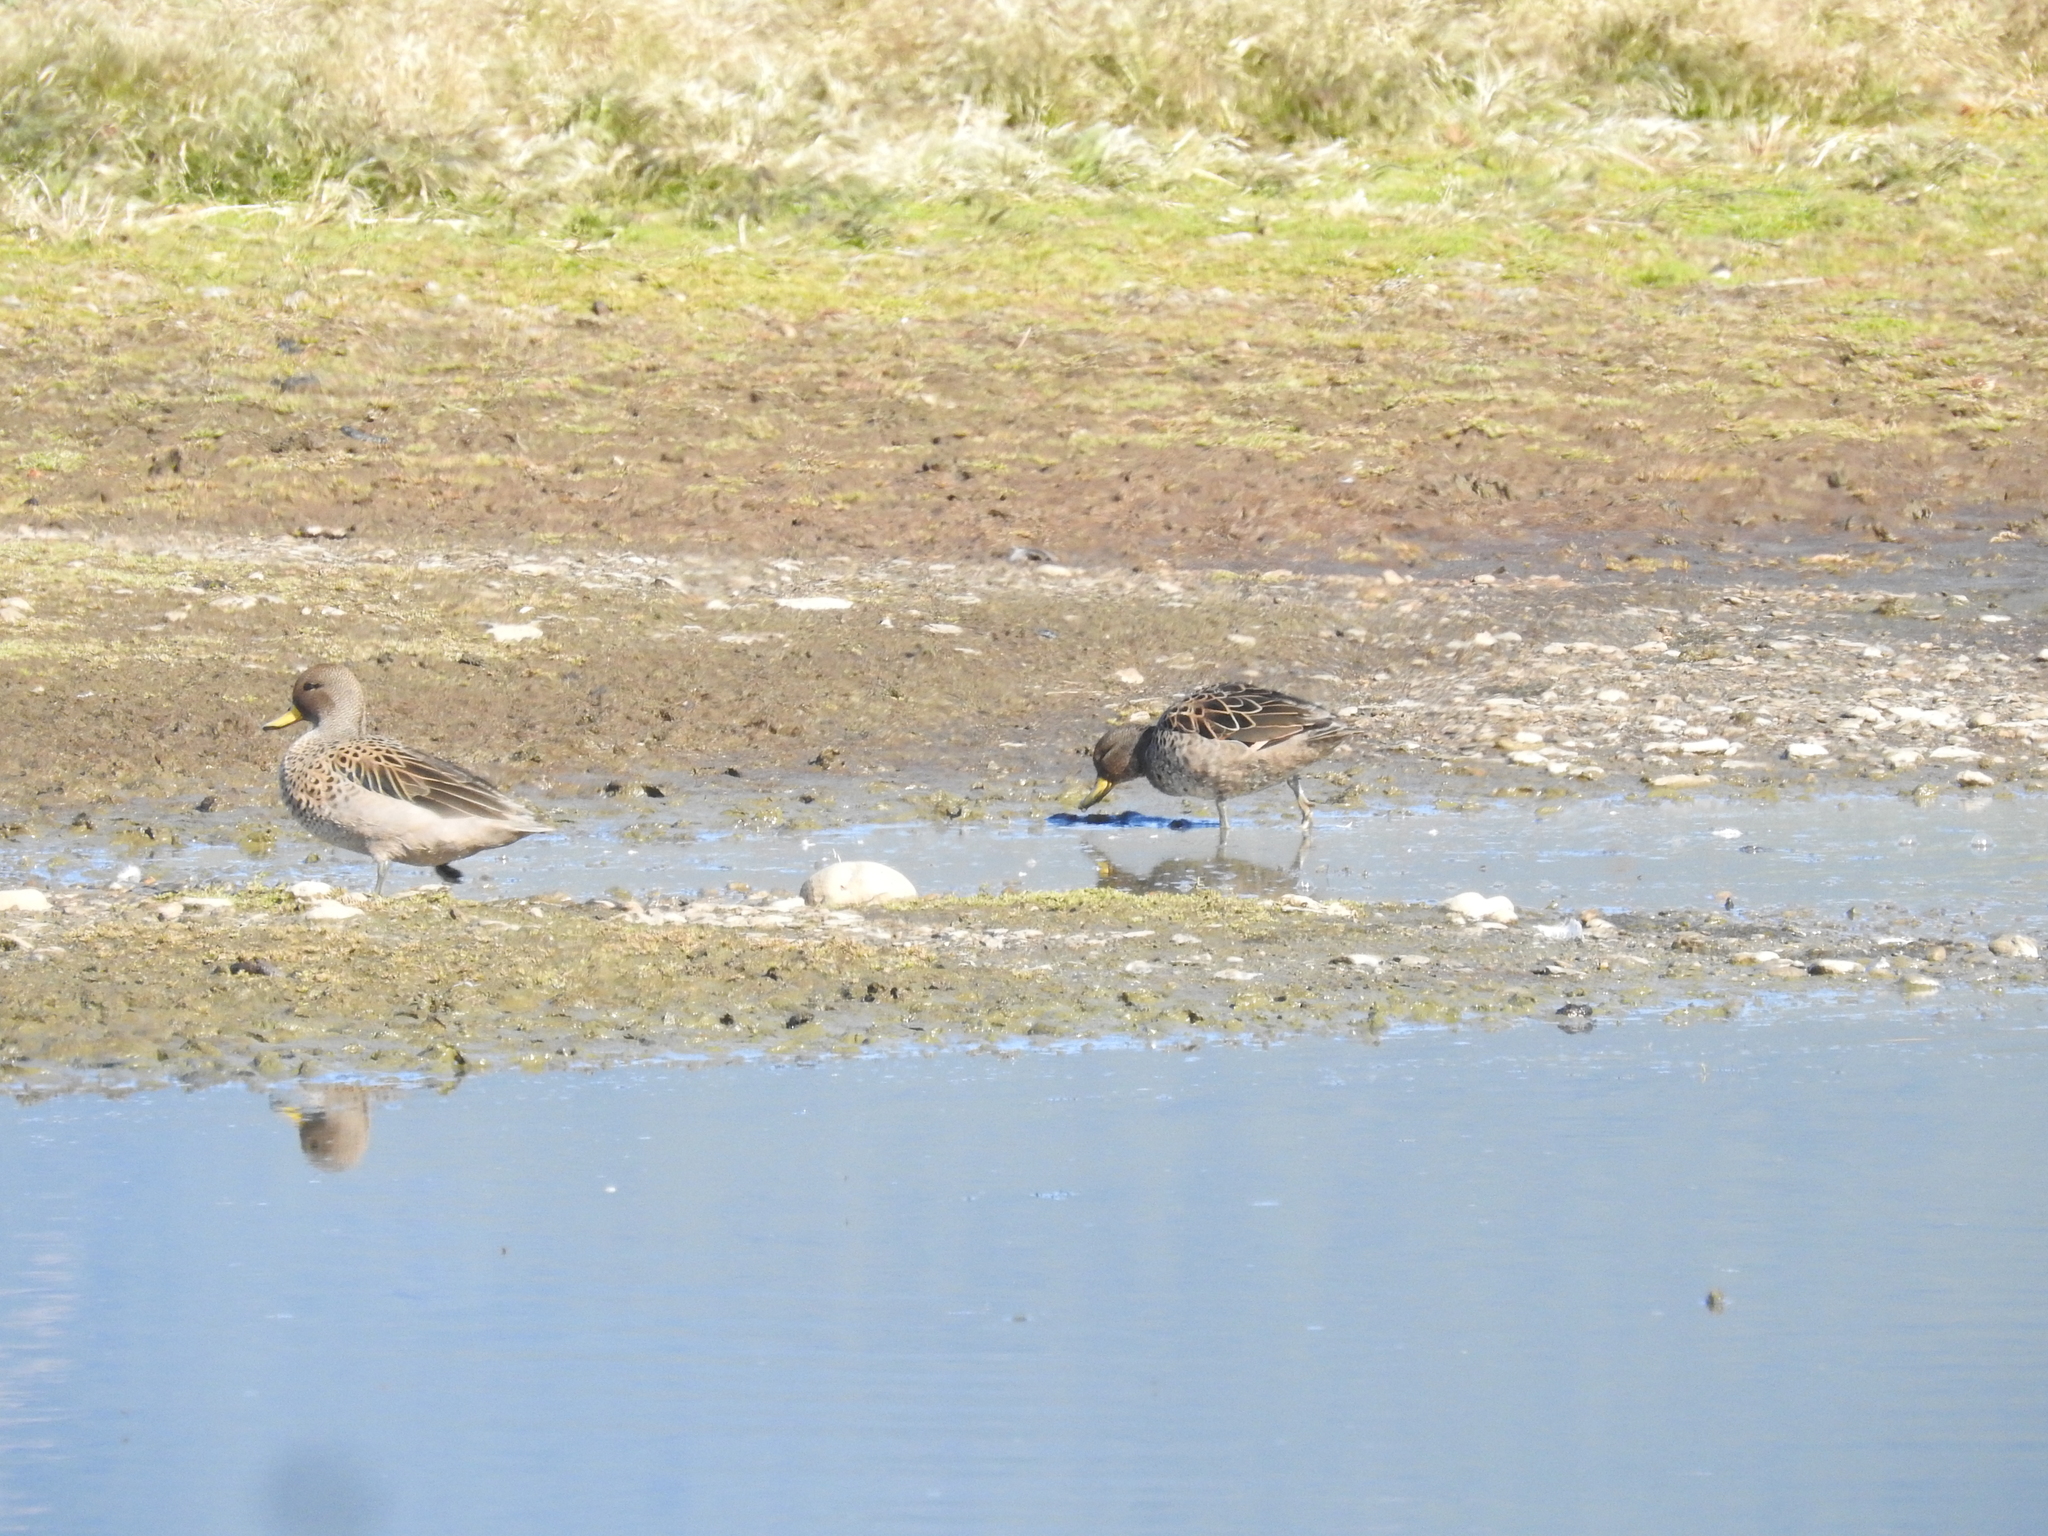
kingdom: Animalia
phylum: Chordata
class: Aves
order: Anseriformes
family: Anatidae
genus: Anas
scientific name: Anas flavirostris
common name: Yellow-billed teal
